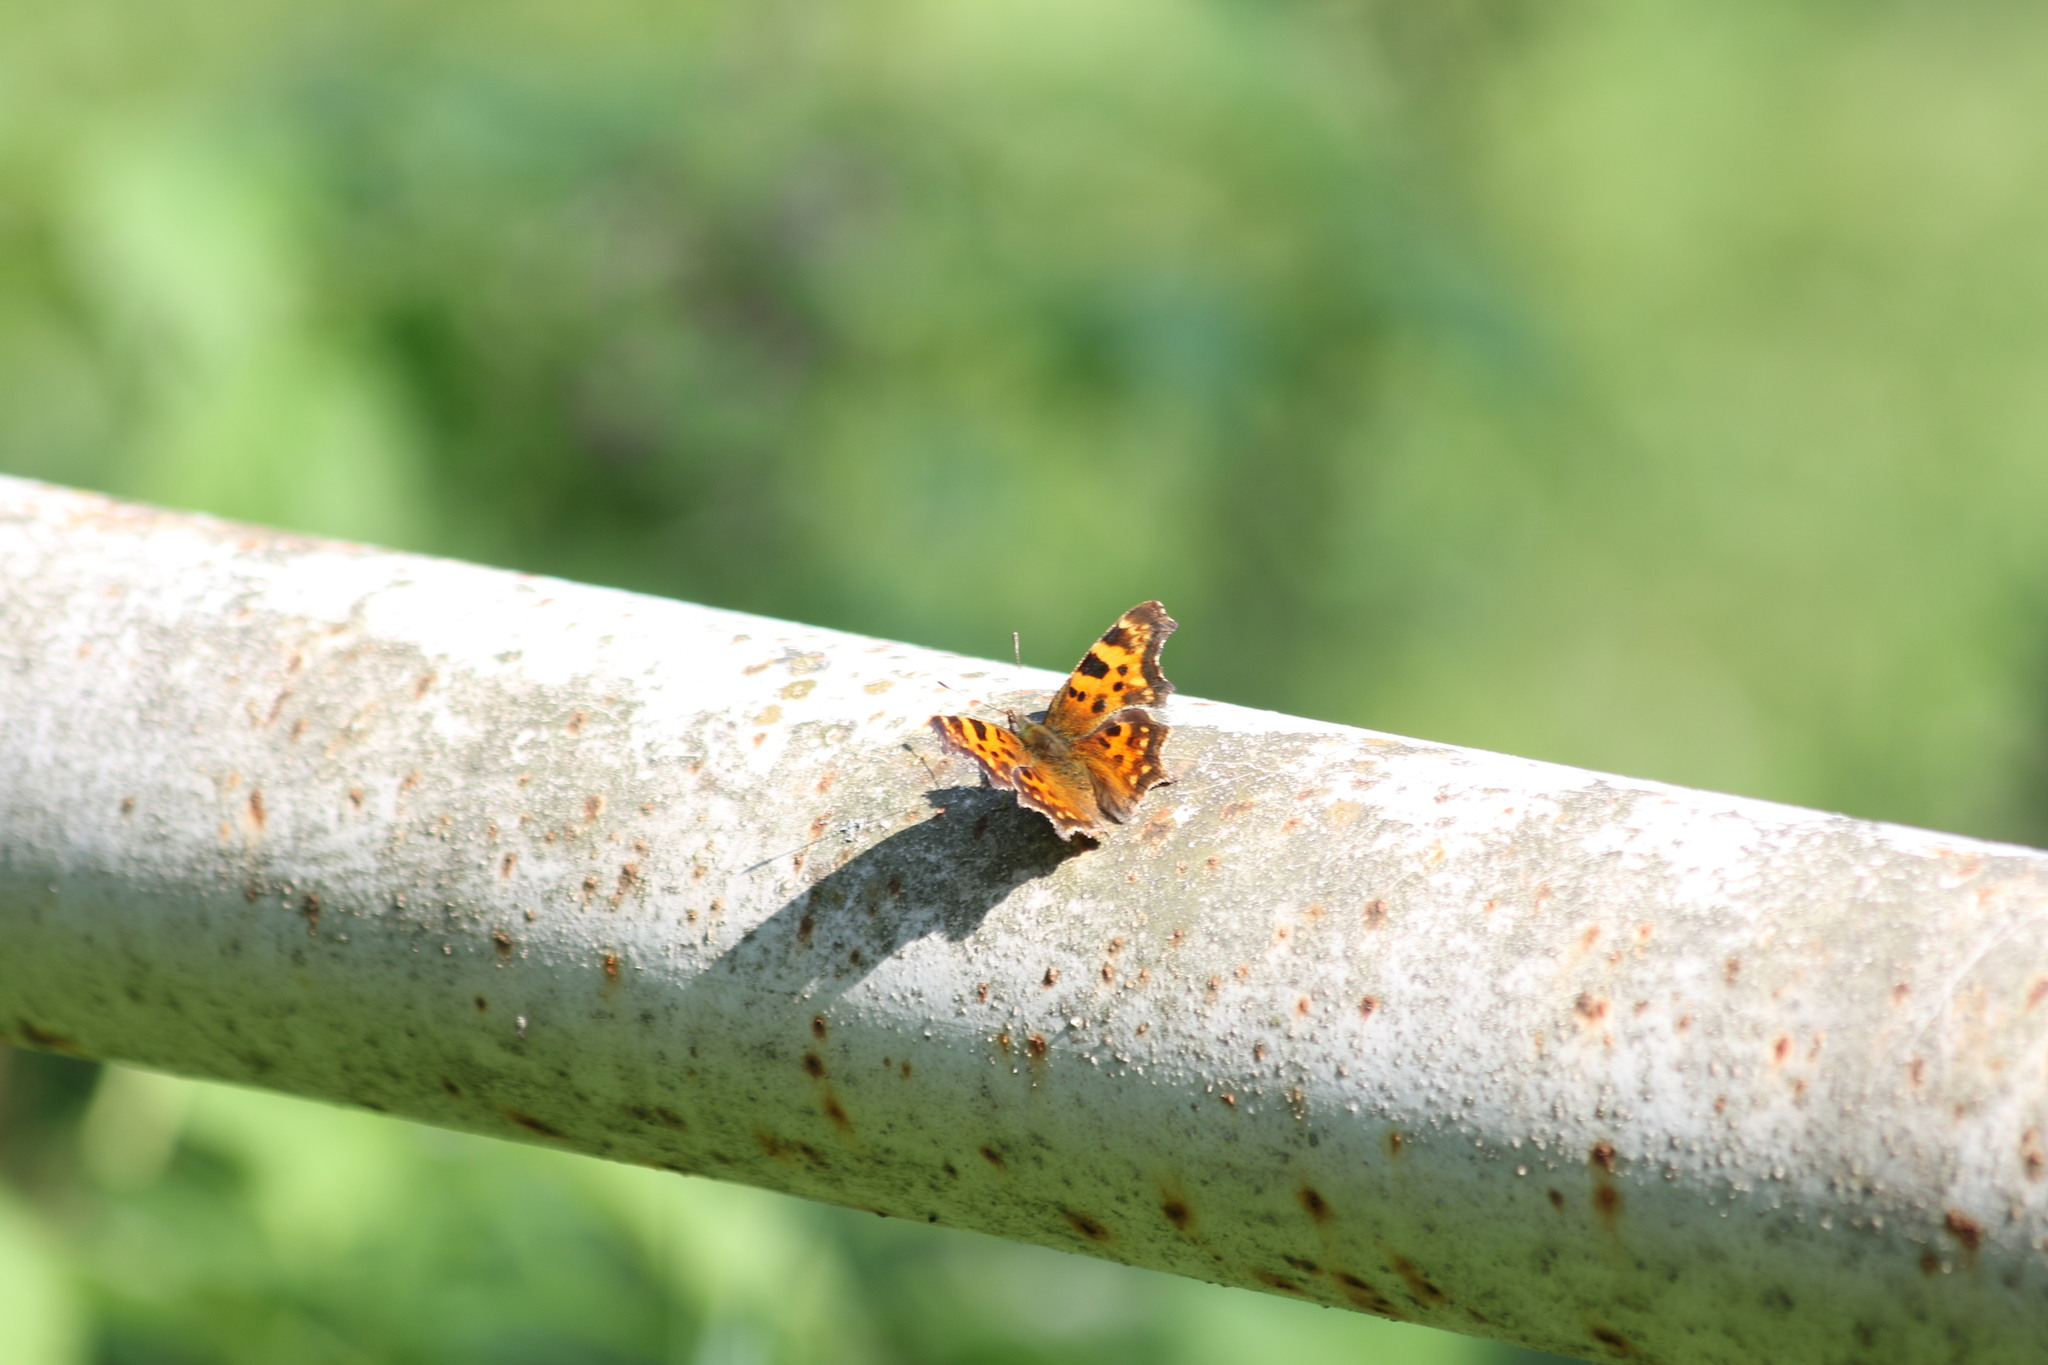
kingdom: Animalia
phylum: Arthropoda
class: Insecta
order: Lepidoptera
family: Nymphalidae
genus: Polygonia
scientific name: Polygonia c-album
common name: Comma
